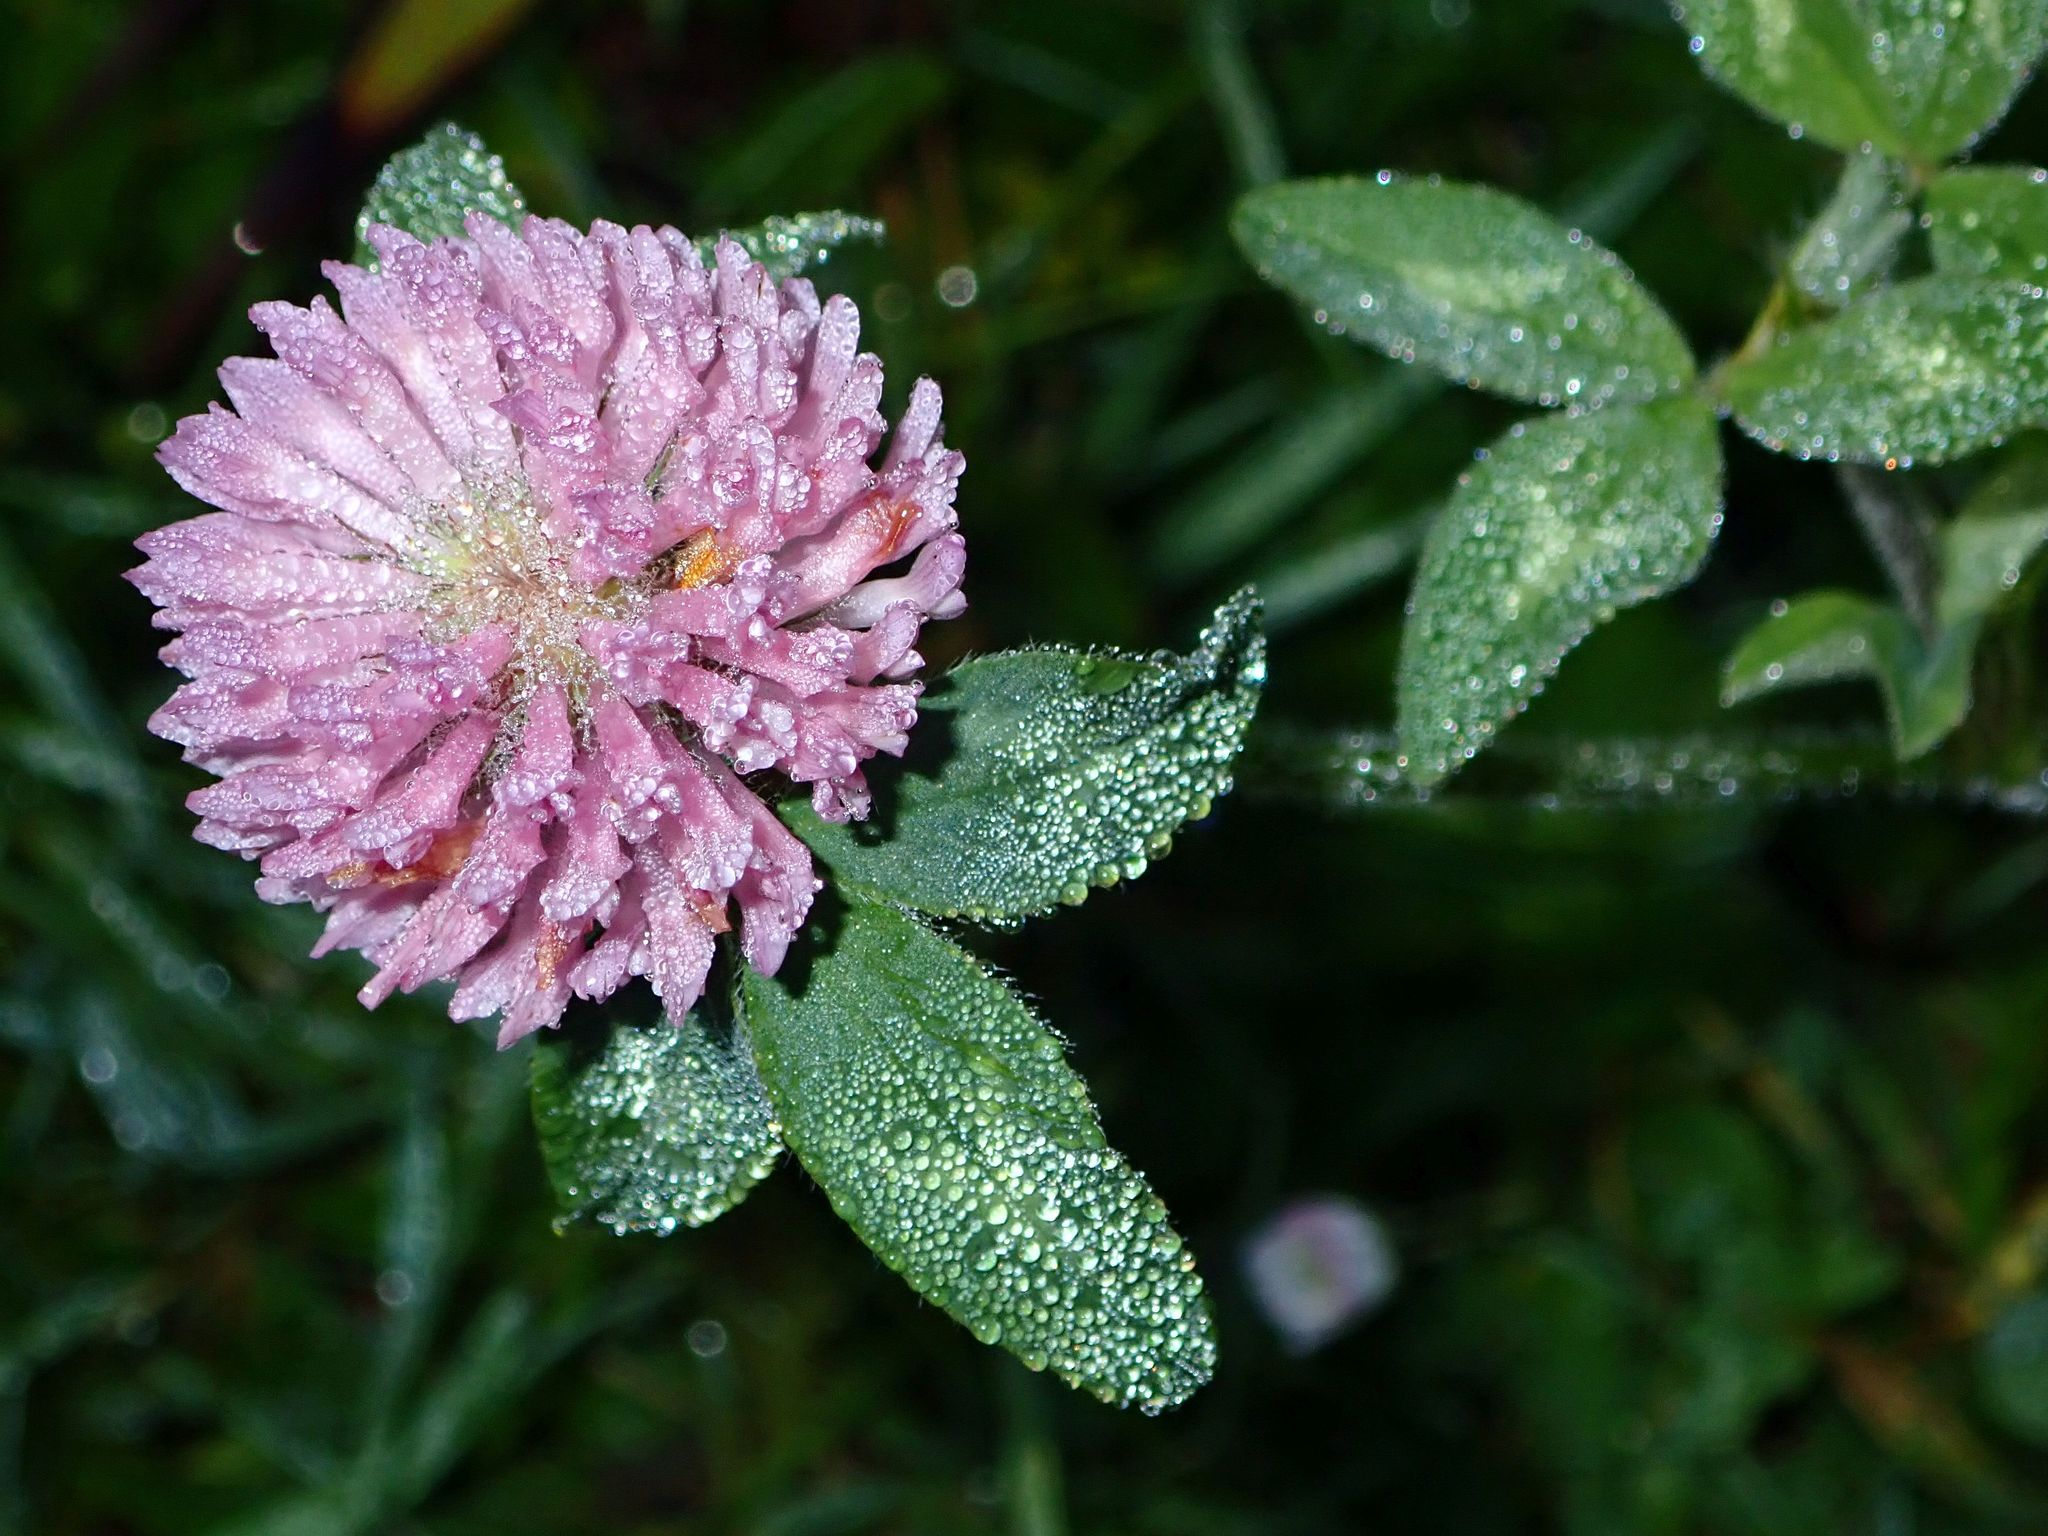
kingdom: Plantae
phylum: Tracheophyta
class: Magnoliopsida
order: Fabales
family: Fabaceae
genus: Trifolium
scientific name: Trifolium pratense
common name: Red clover
